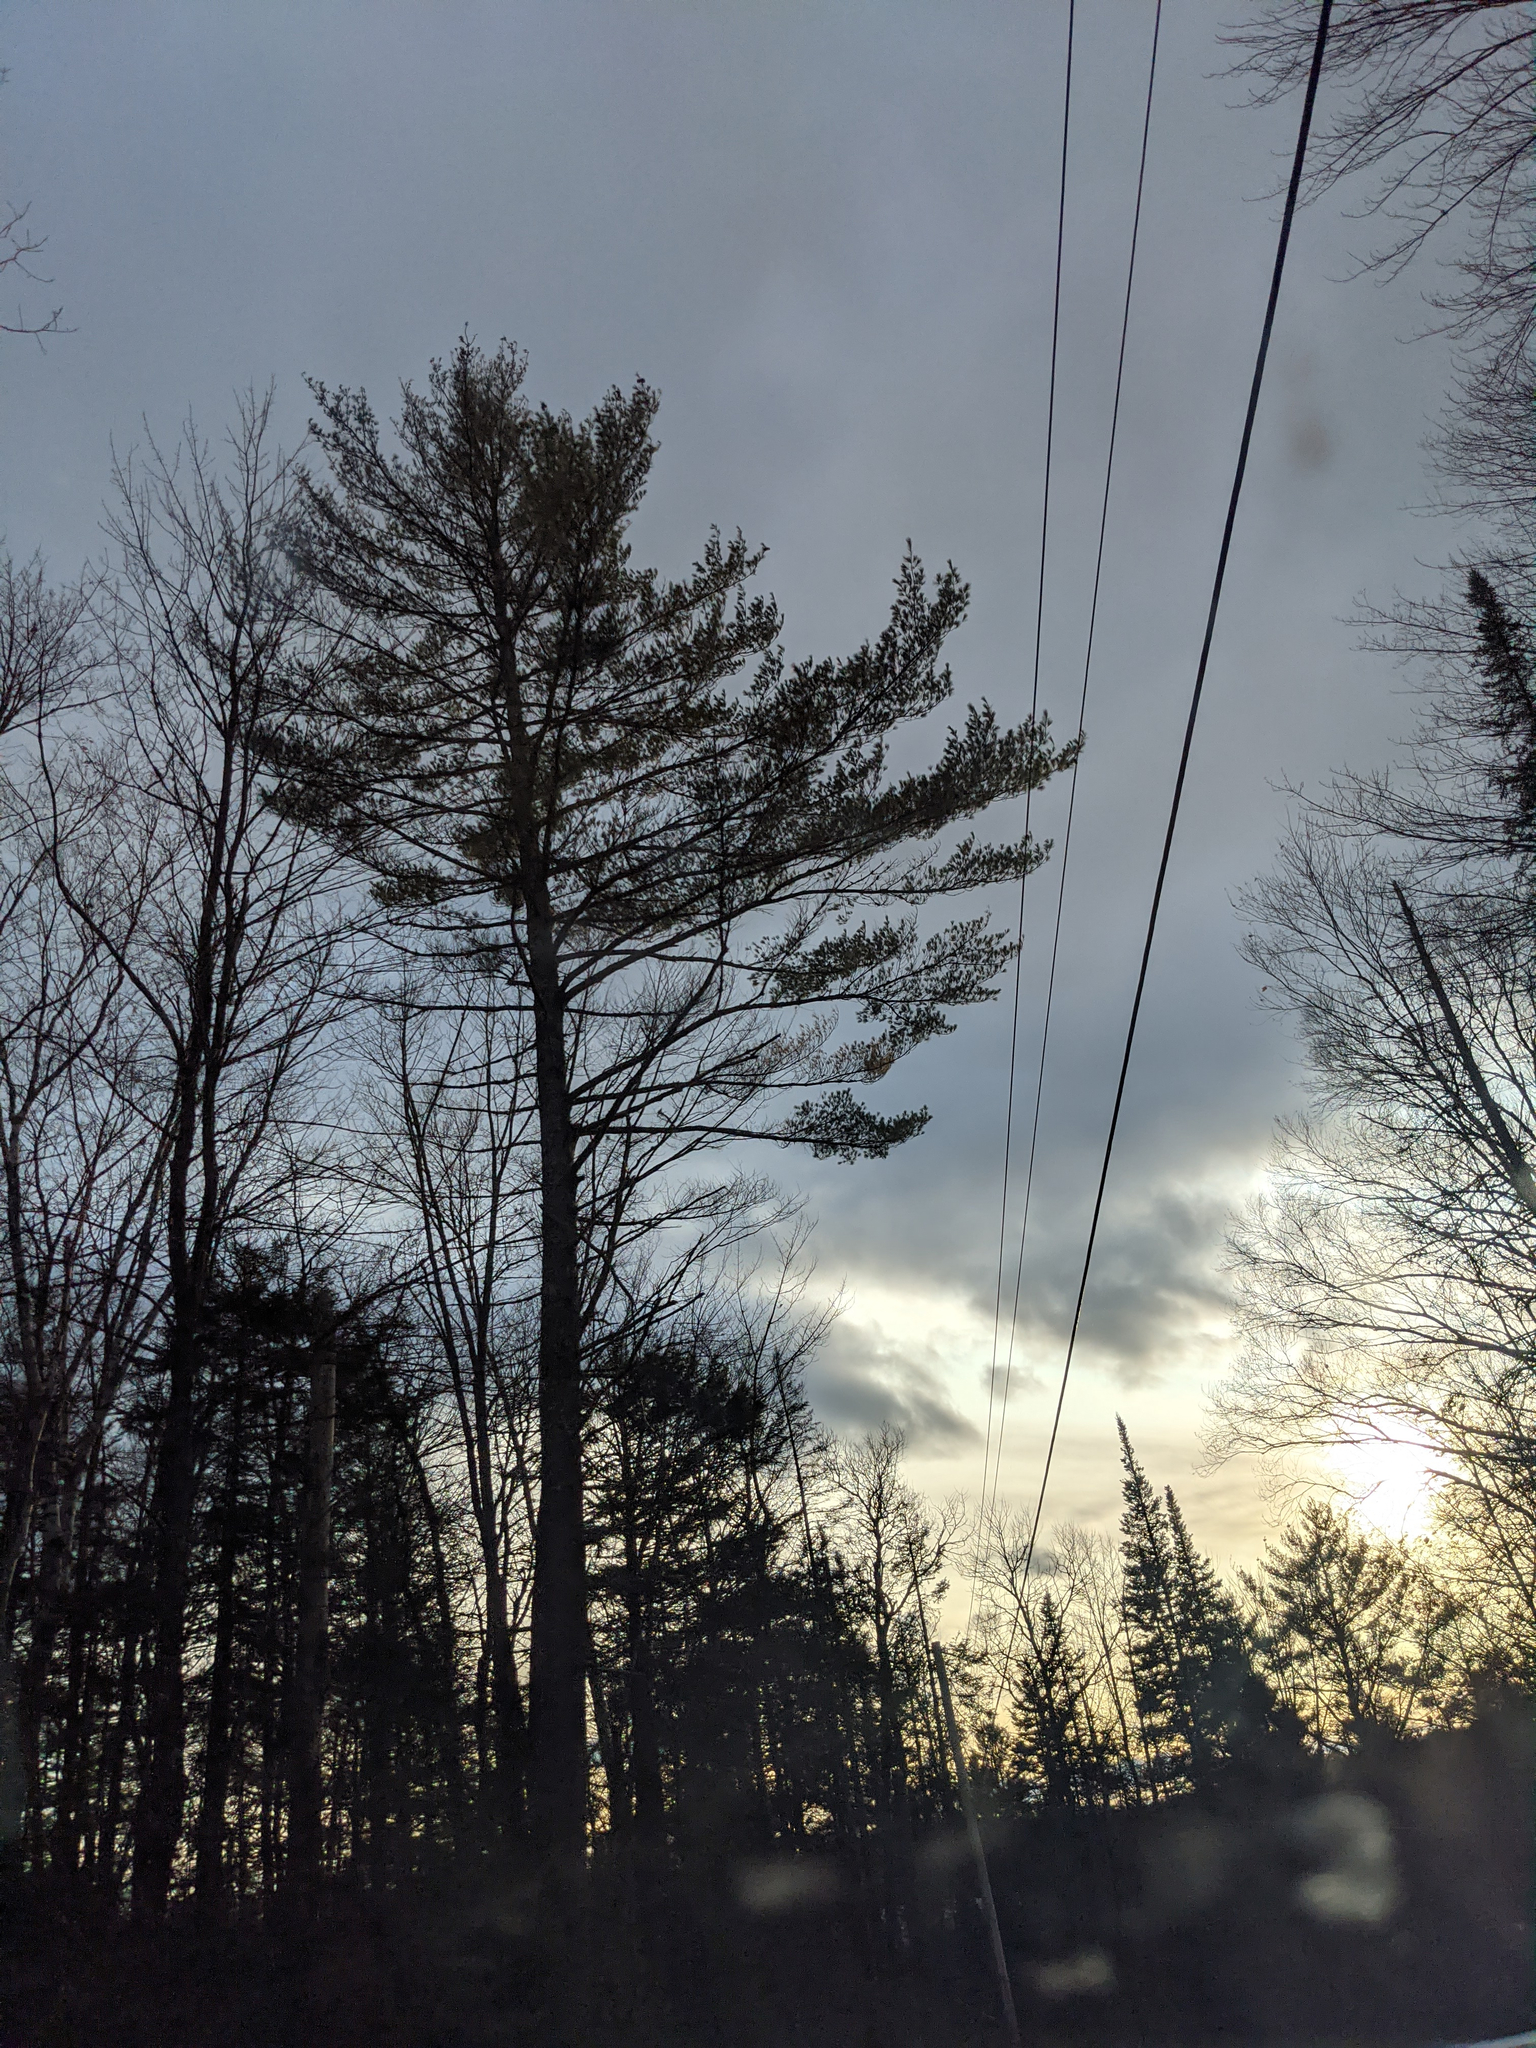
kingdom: Plantae
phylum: Tracheophyta
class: Pinopsida
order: Pinales
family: Pinaceae
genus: Pinus
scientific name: Pinus strobus
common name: Weymouth pine
